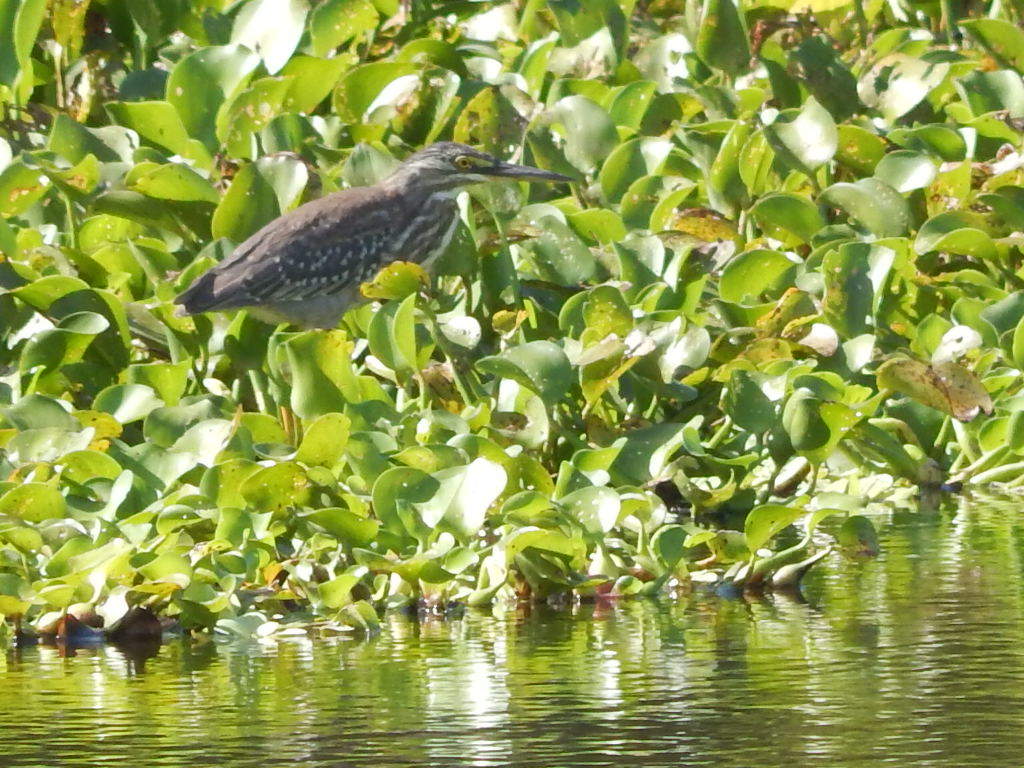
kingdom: Animalia
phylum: Chordata
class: Aves
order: Pelecaniformes
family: Ardeidae
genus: Butorides
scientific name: Butorides striata
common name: Striated heron
